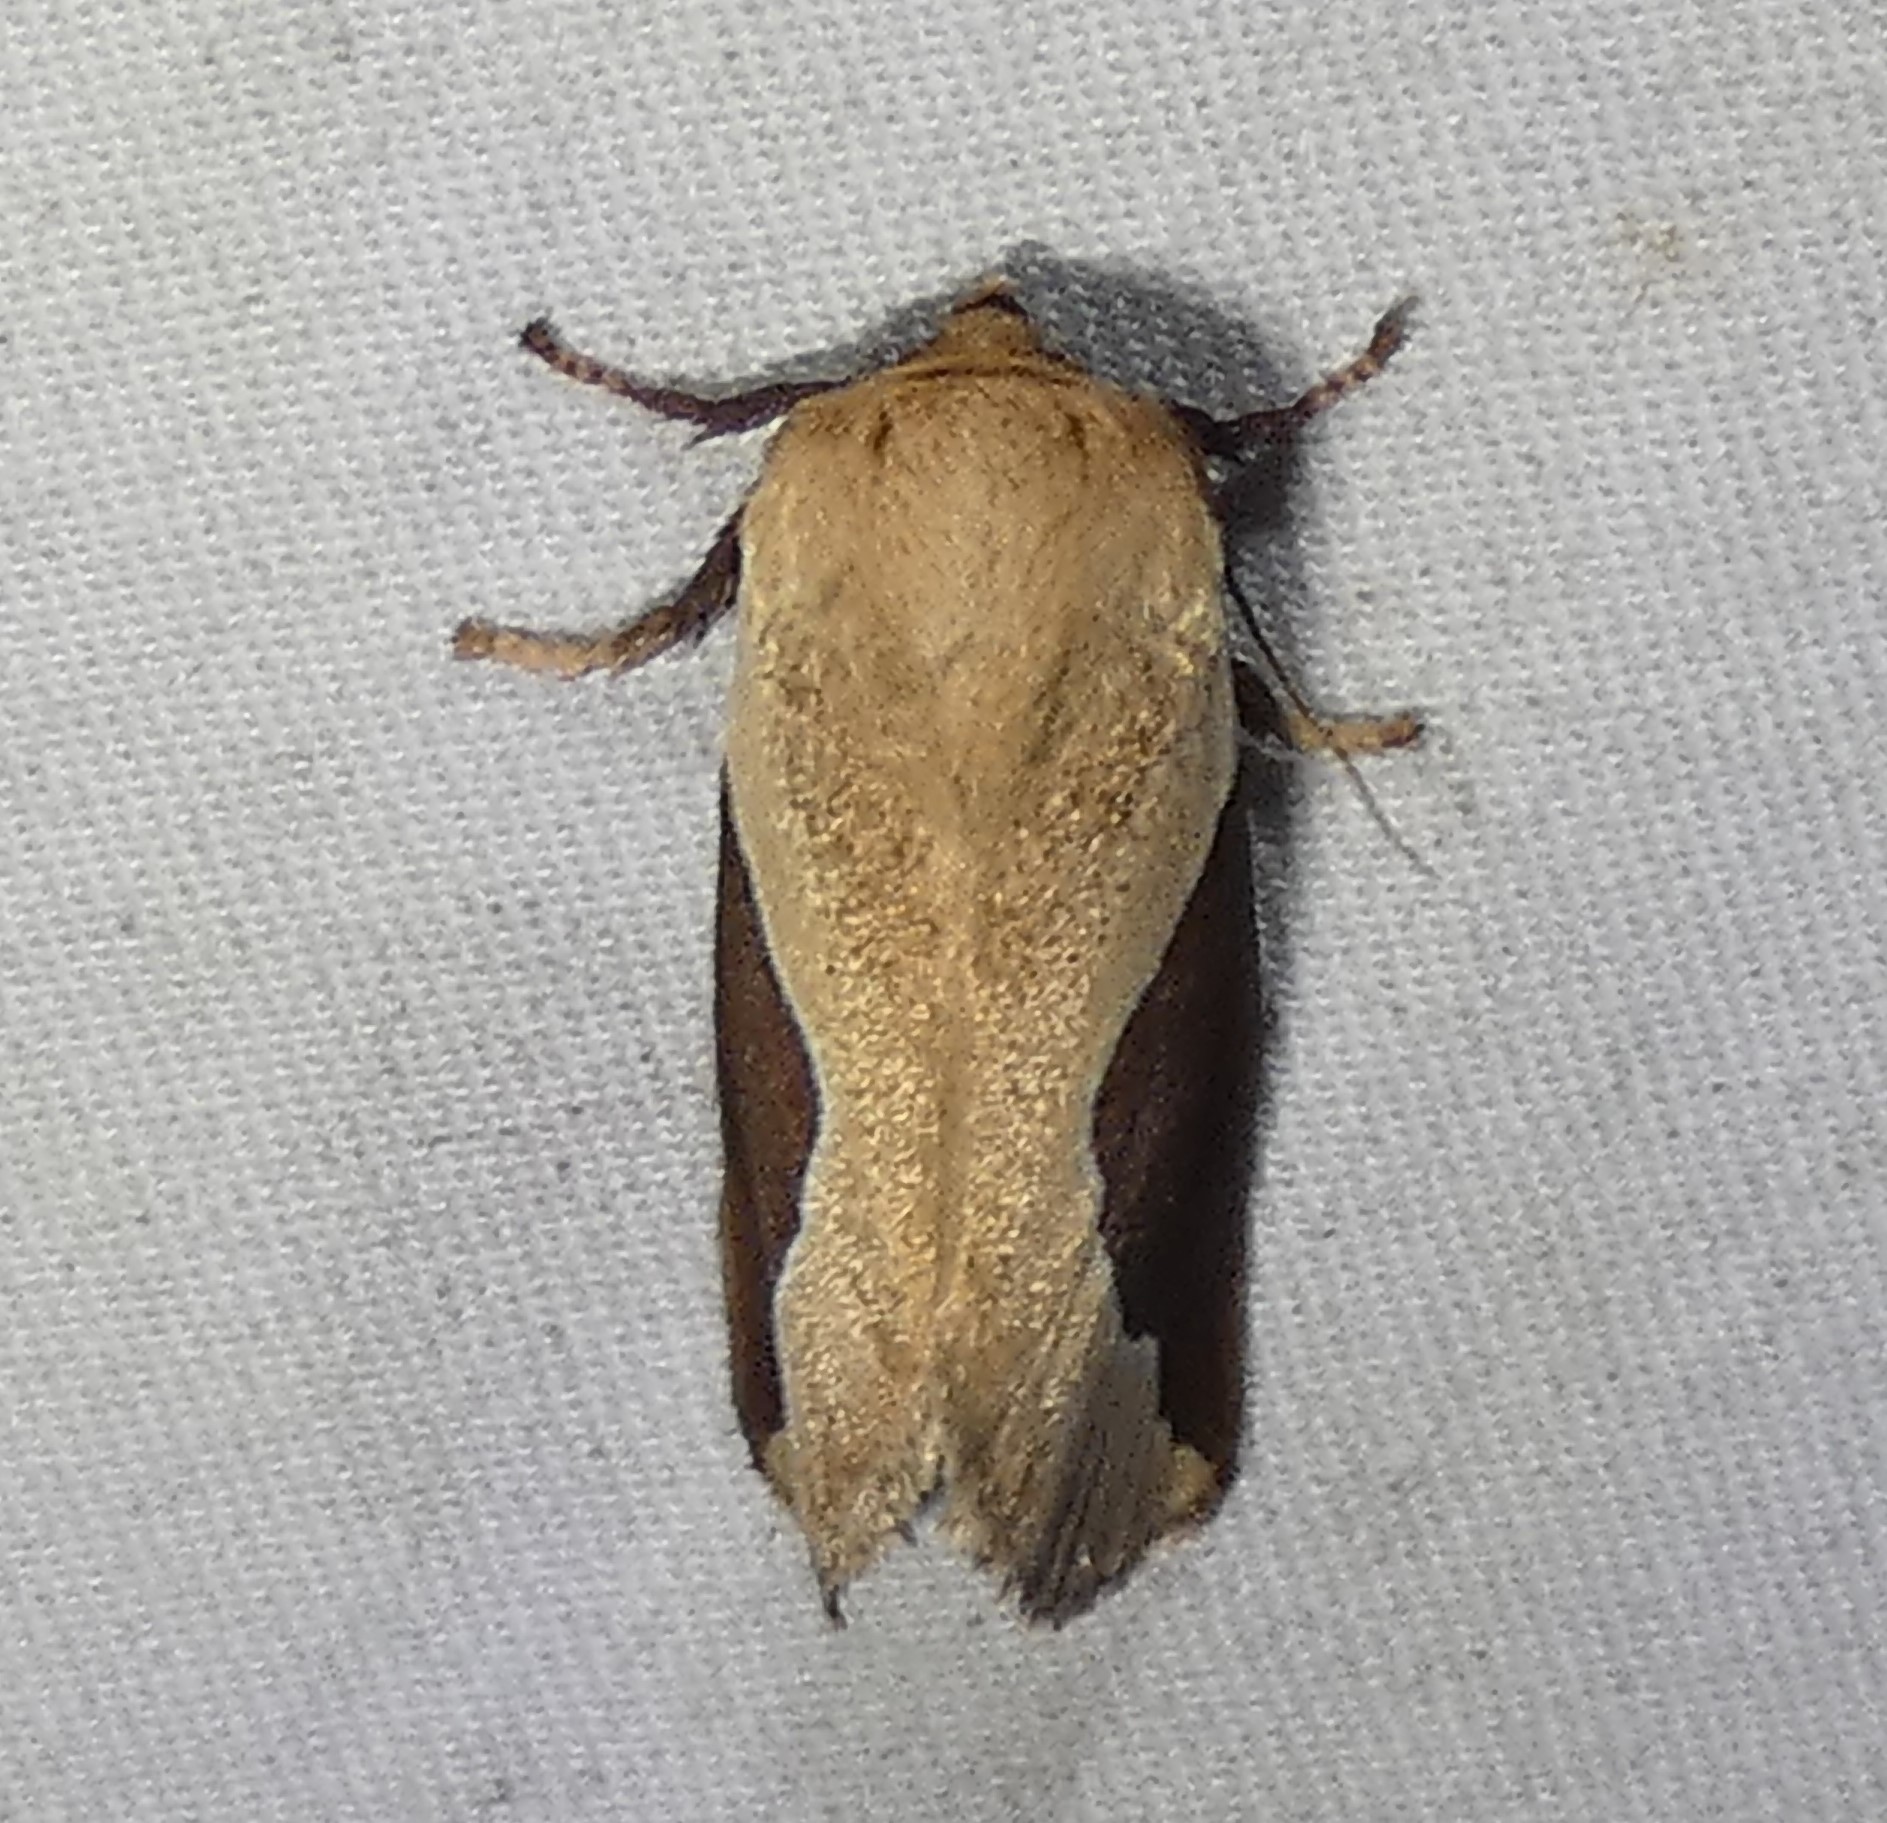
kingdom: Animalia
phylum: Arthropoda
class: Insecta
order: Lepidoptera
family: Limacodidae
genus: Prolimacodes
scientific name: Prolimacodes badia
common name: Skiff moth
